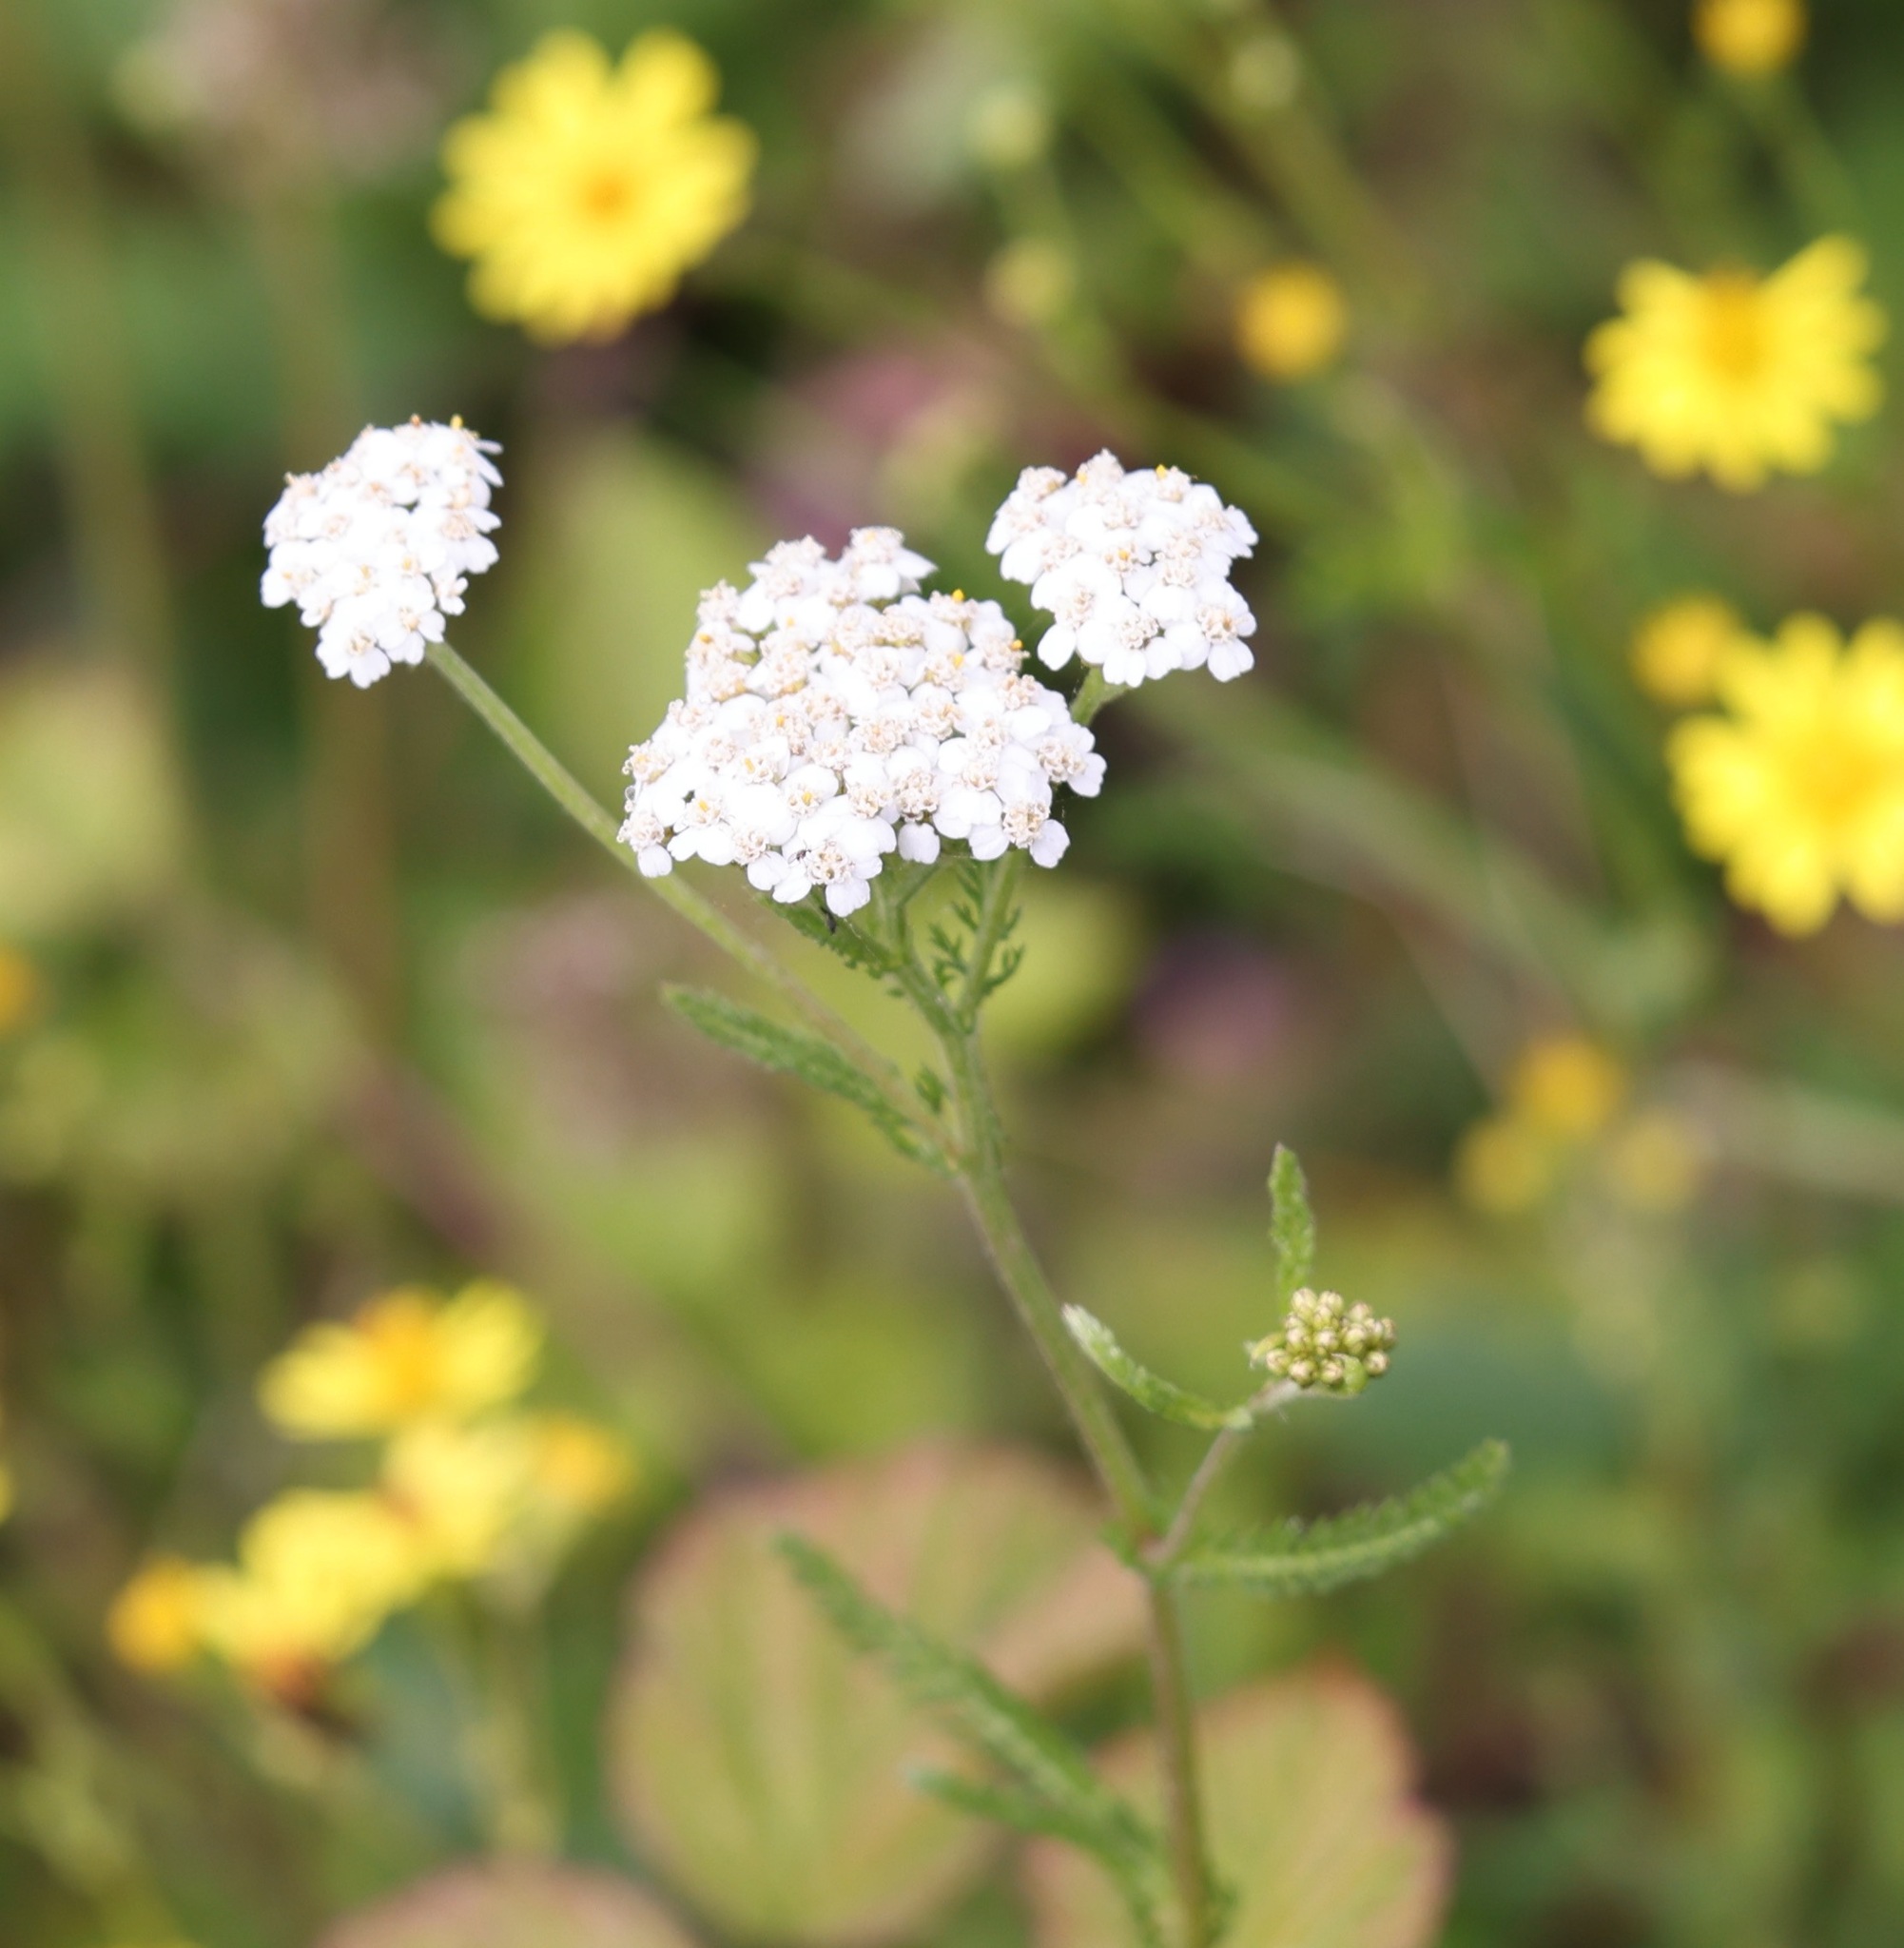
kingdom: Plantae
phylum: Tracheophyta
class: Magnoliopsida
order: Asterales
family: Asteraceae
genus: Achillea
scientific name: Achillea millefolium
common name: Yarrow
